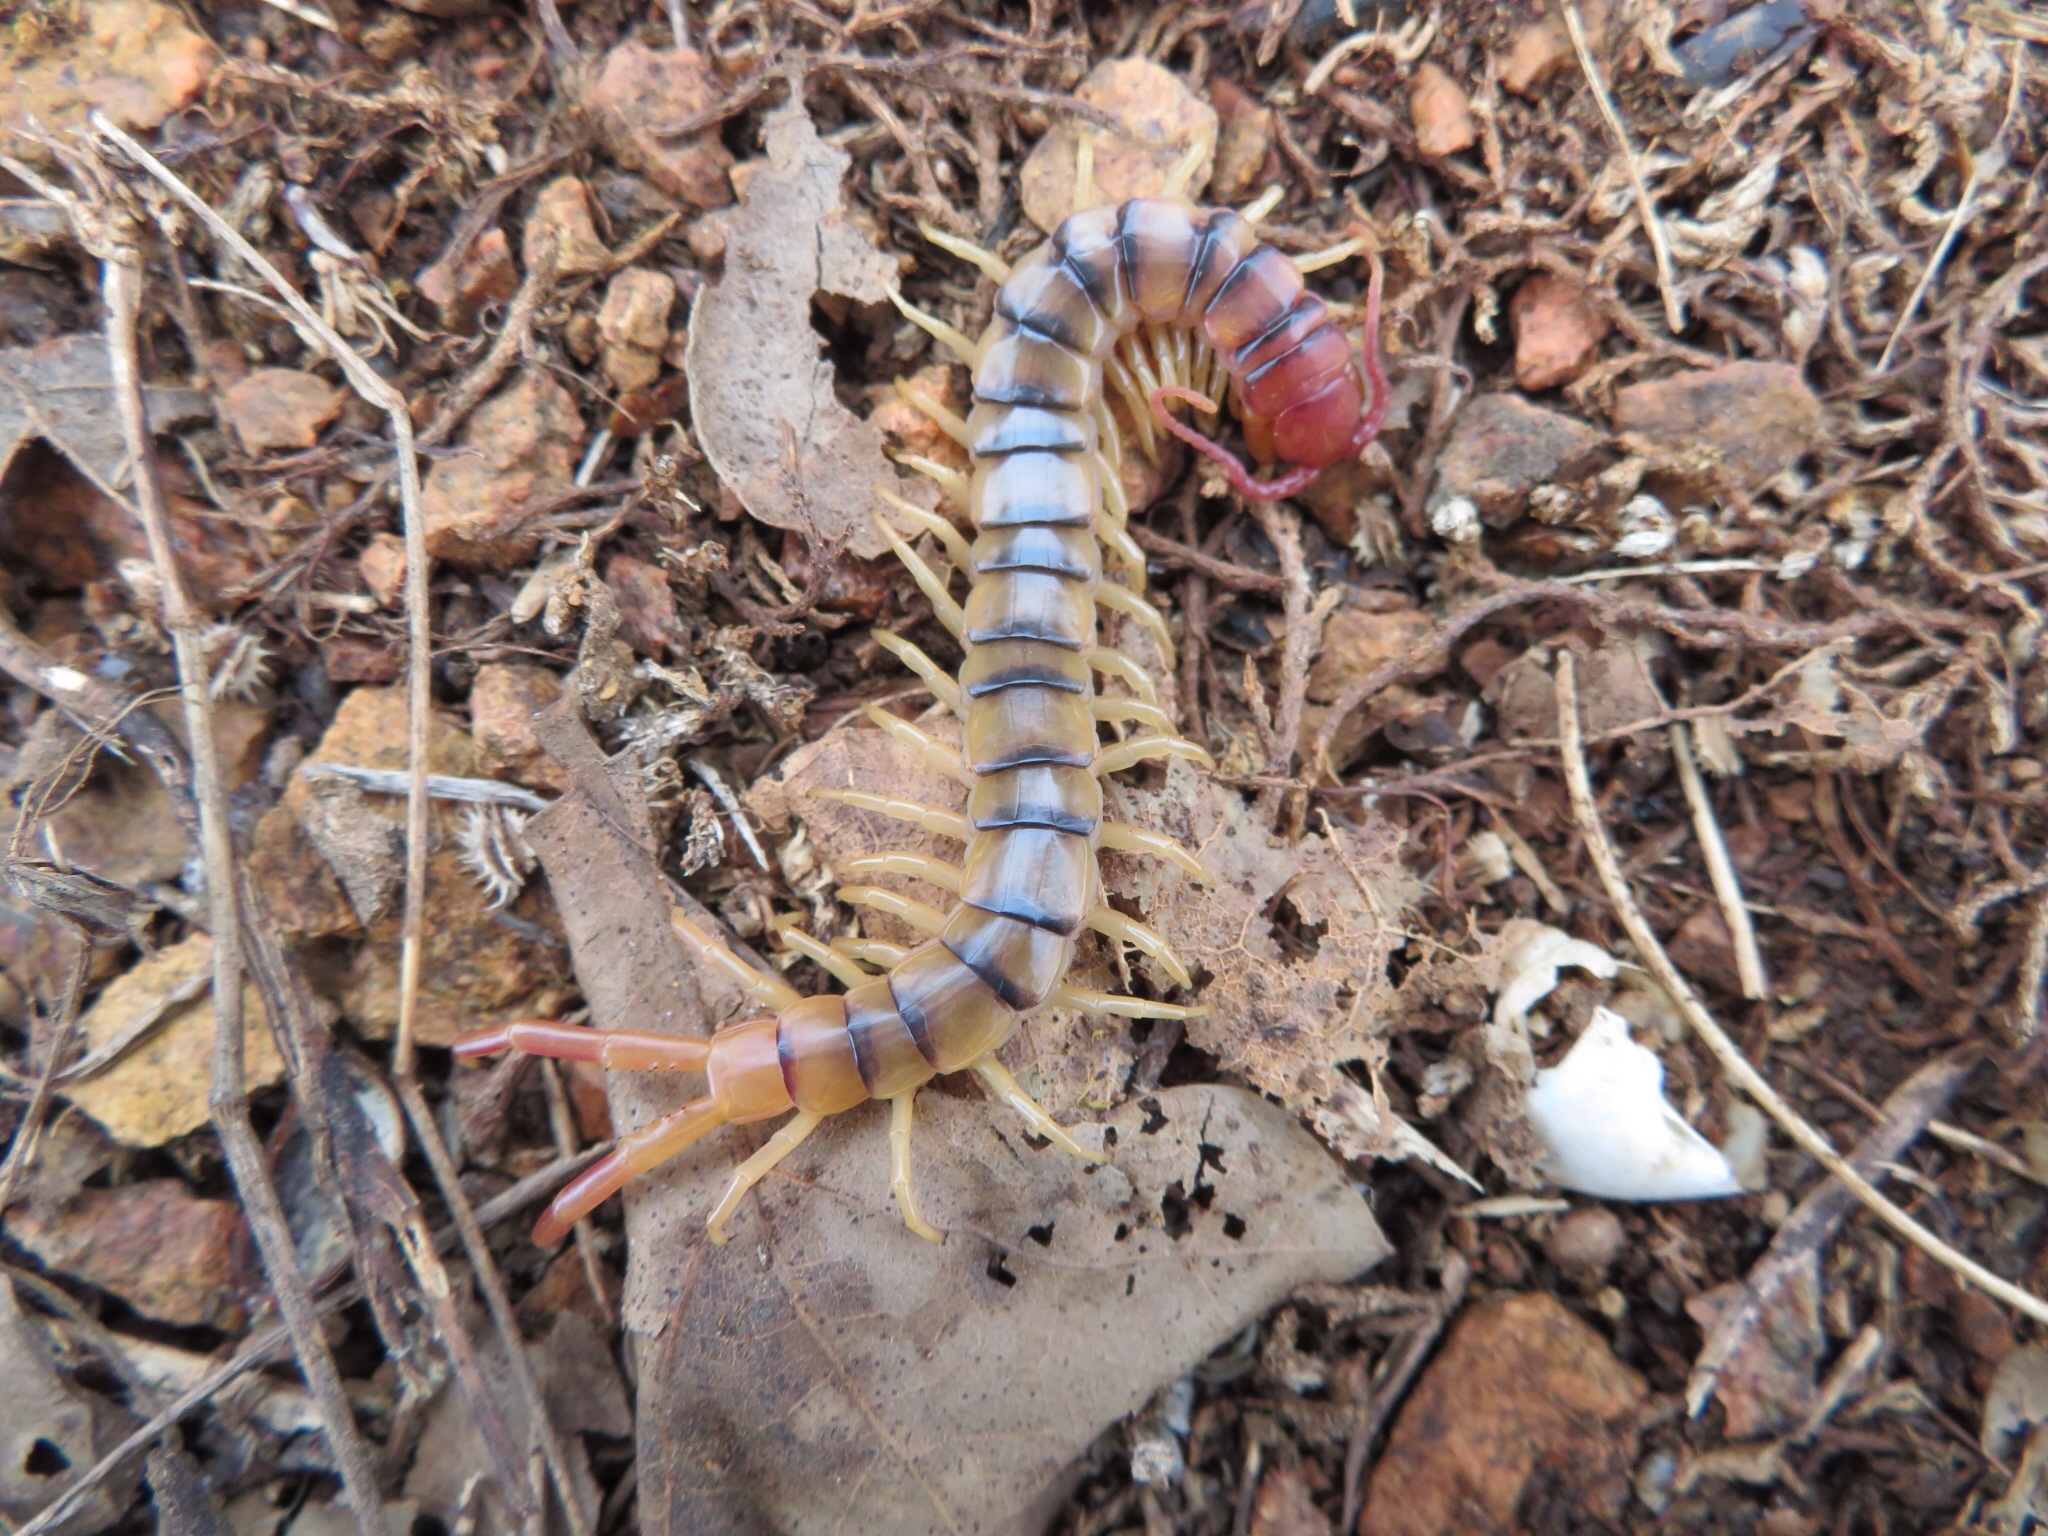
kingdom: Animalia
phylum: Arthropoda
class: Chilopoda
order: Scolopendromorpha
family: Scolopendridae
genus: Scolopendra
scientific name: Scolopendra polymorpha
